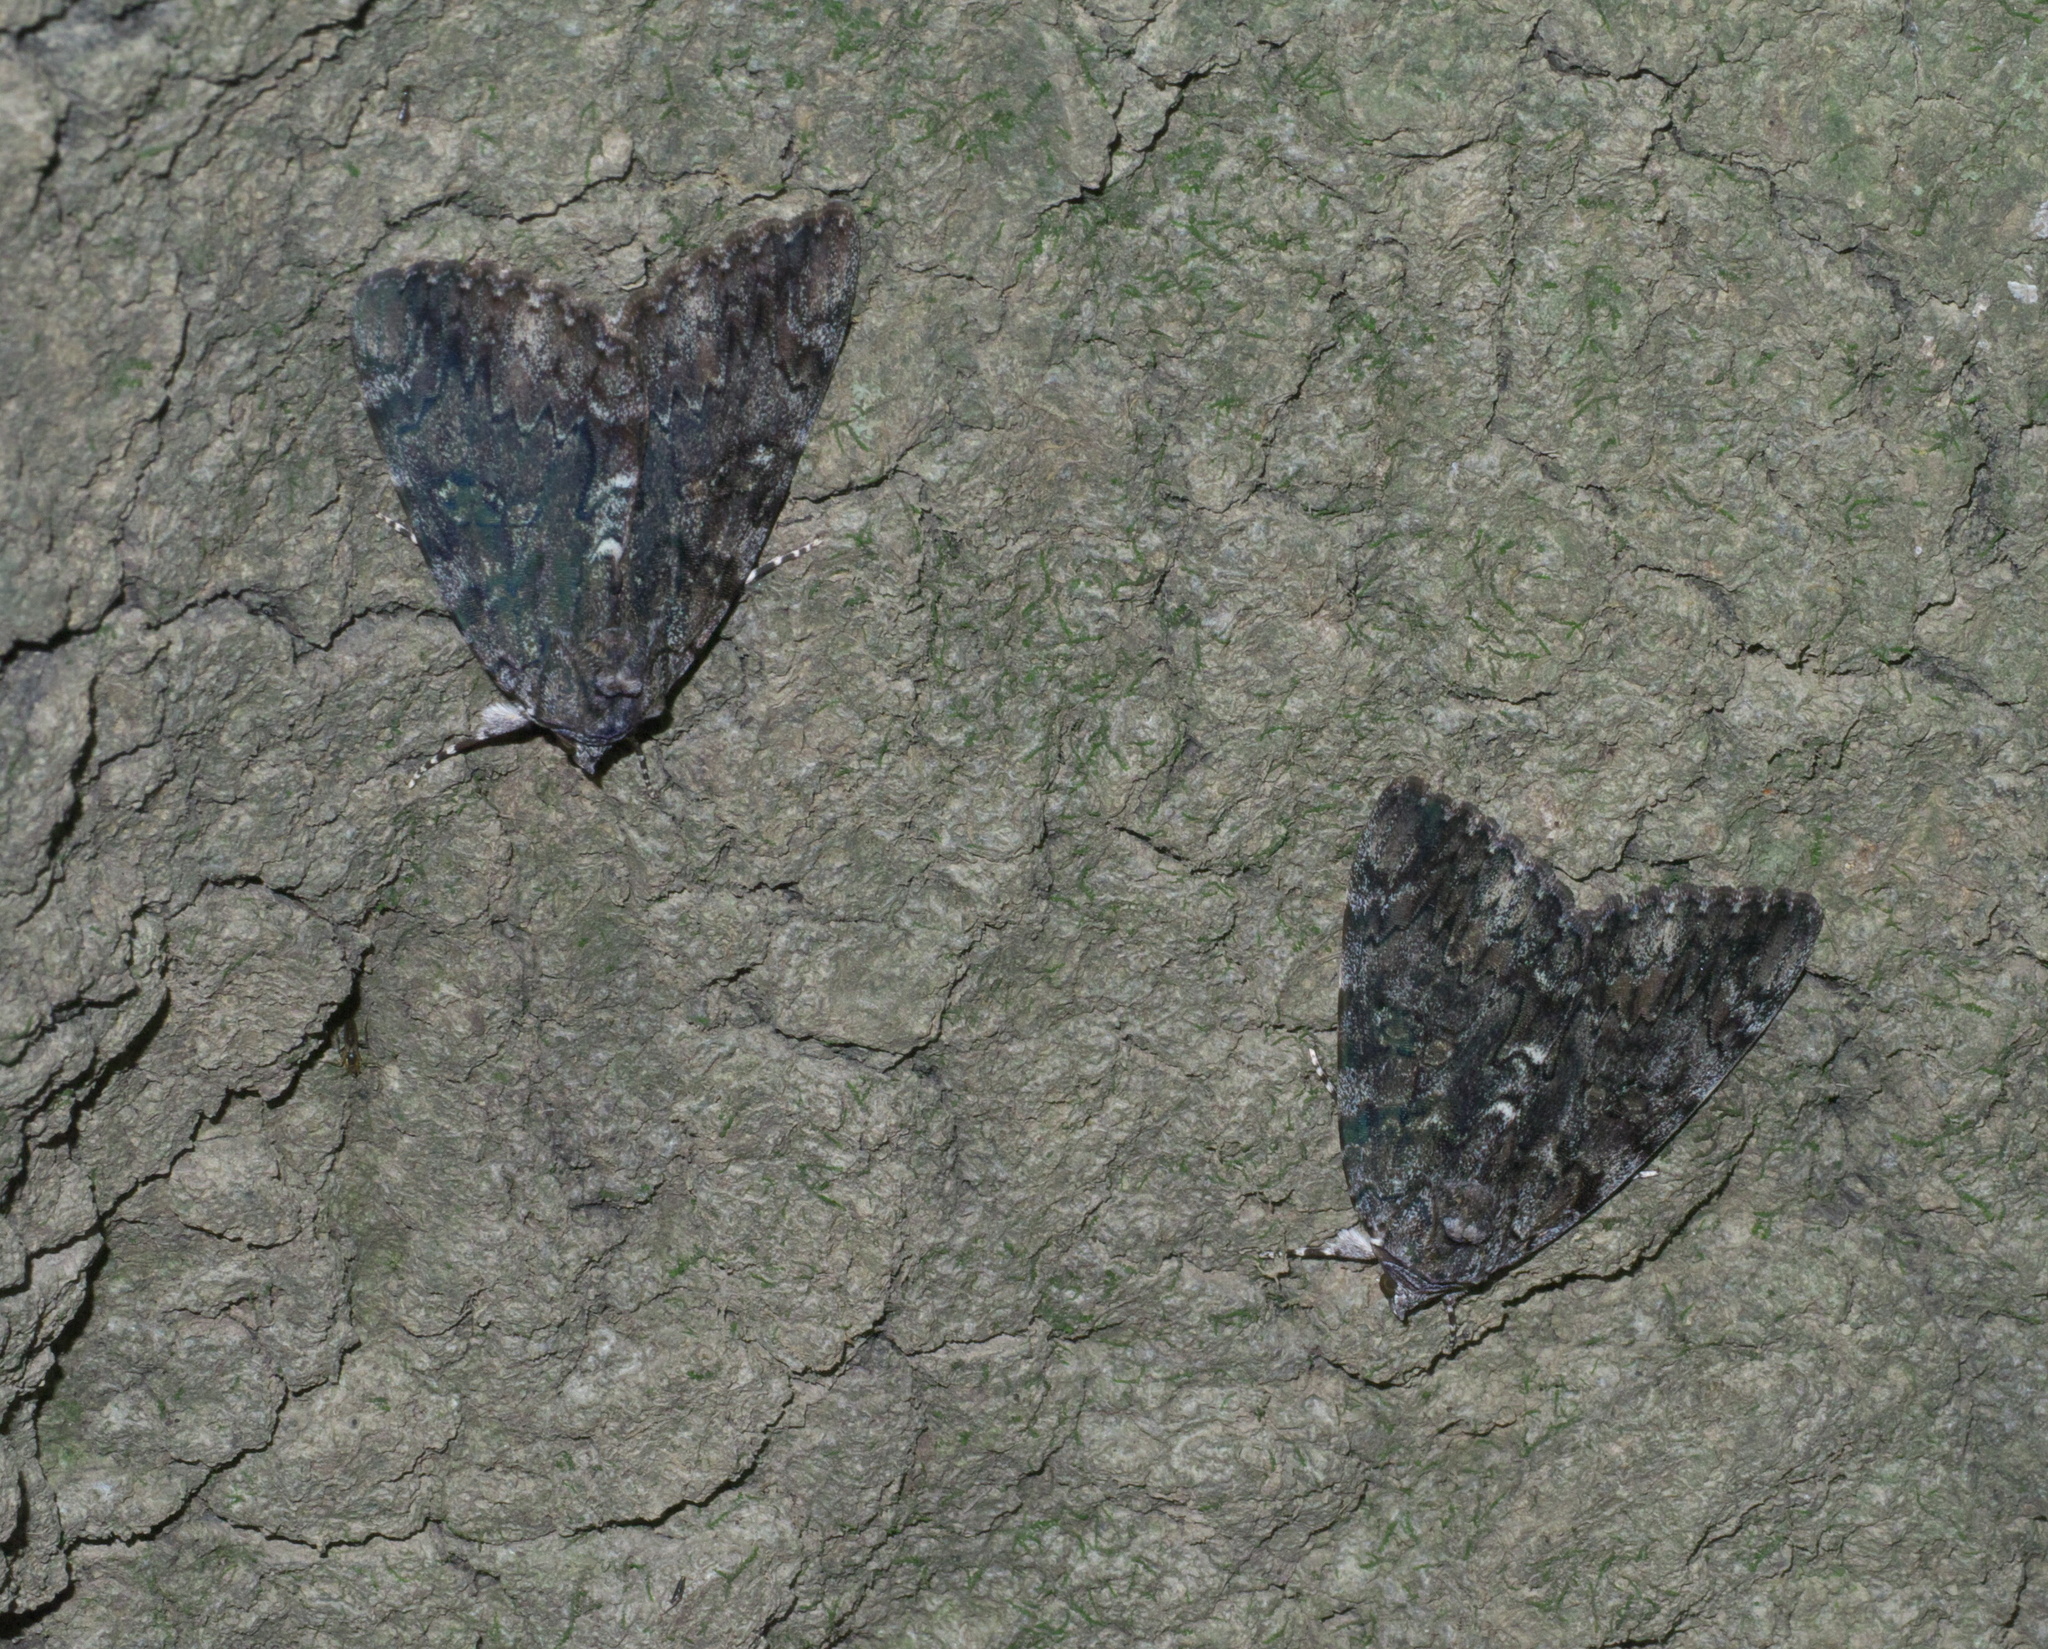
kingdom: Animalia
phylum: Arthropoda
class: Insecta
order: Lepidoptera
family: Erebidae
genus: Catocala
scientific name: Catocala lacrymosa
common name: Tearful underwing
